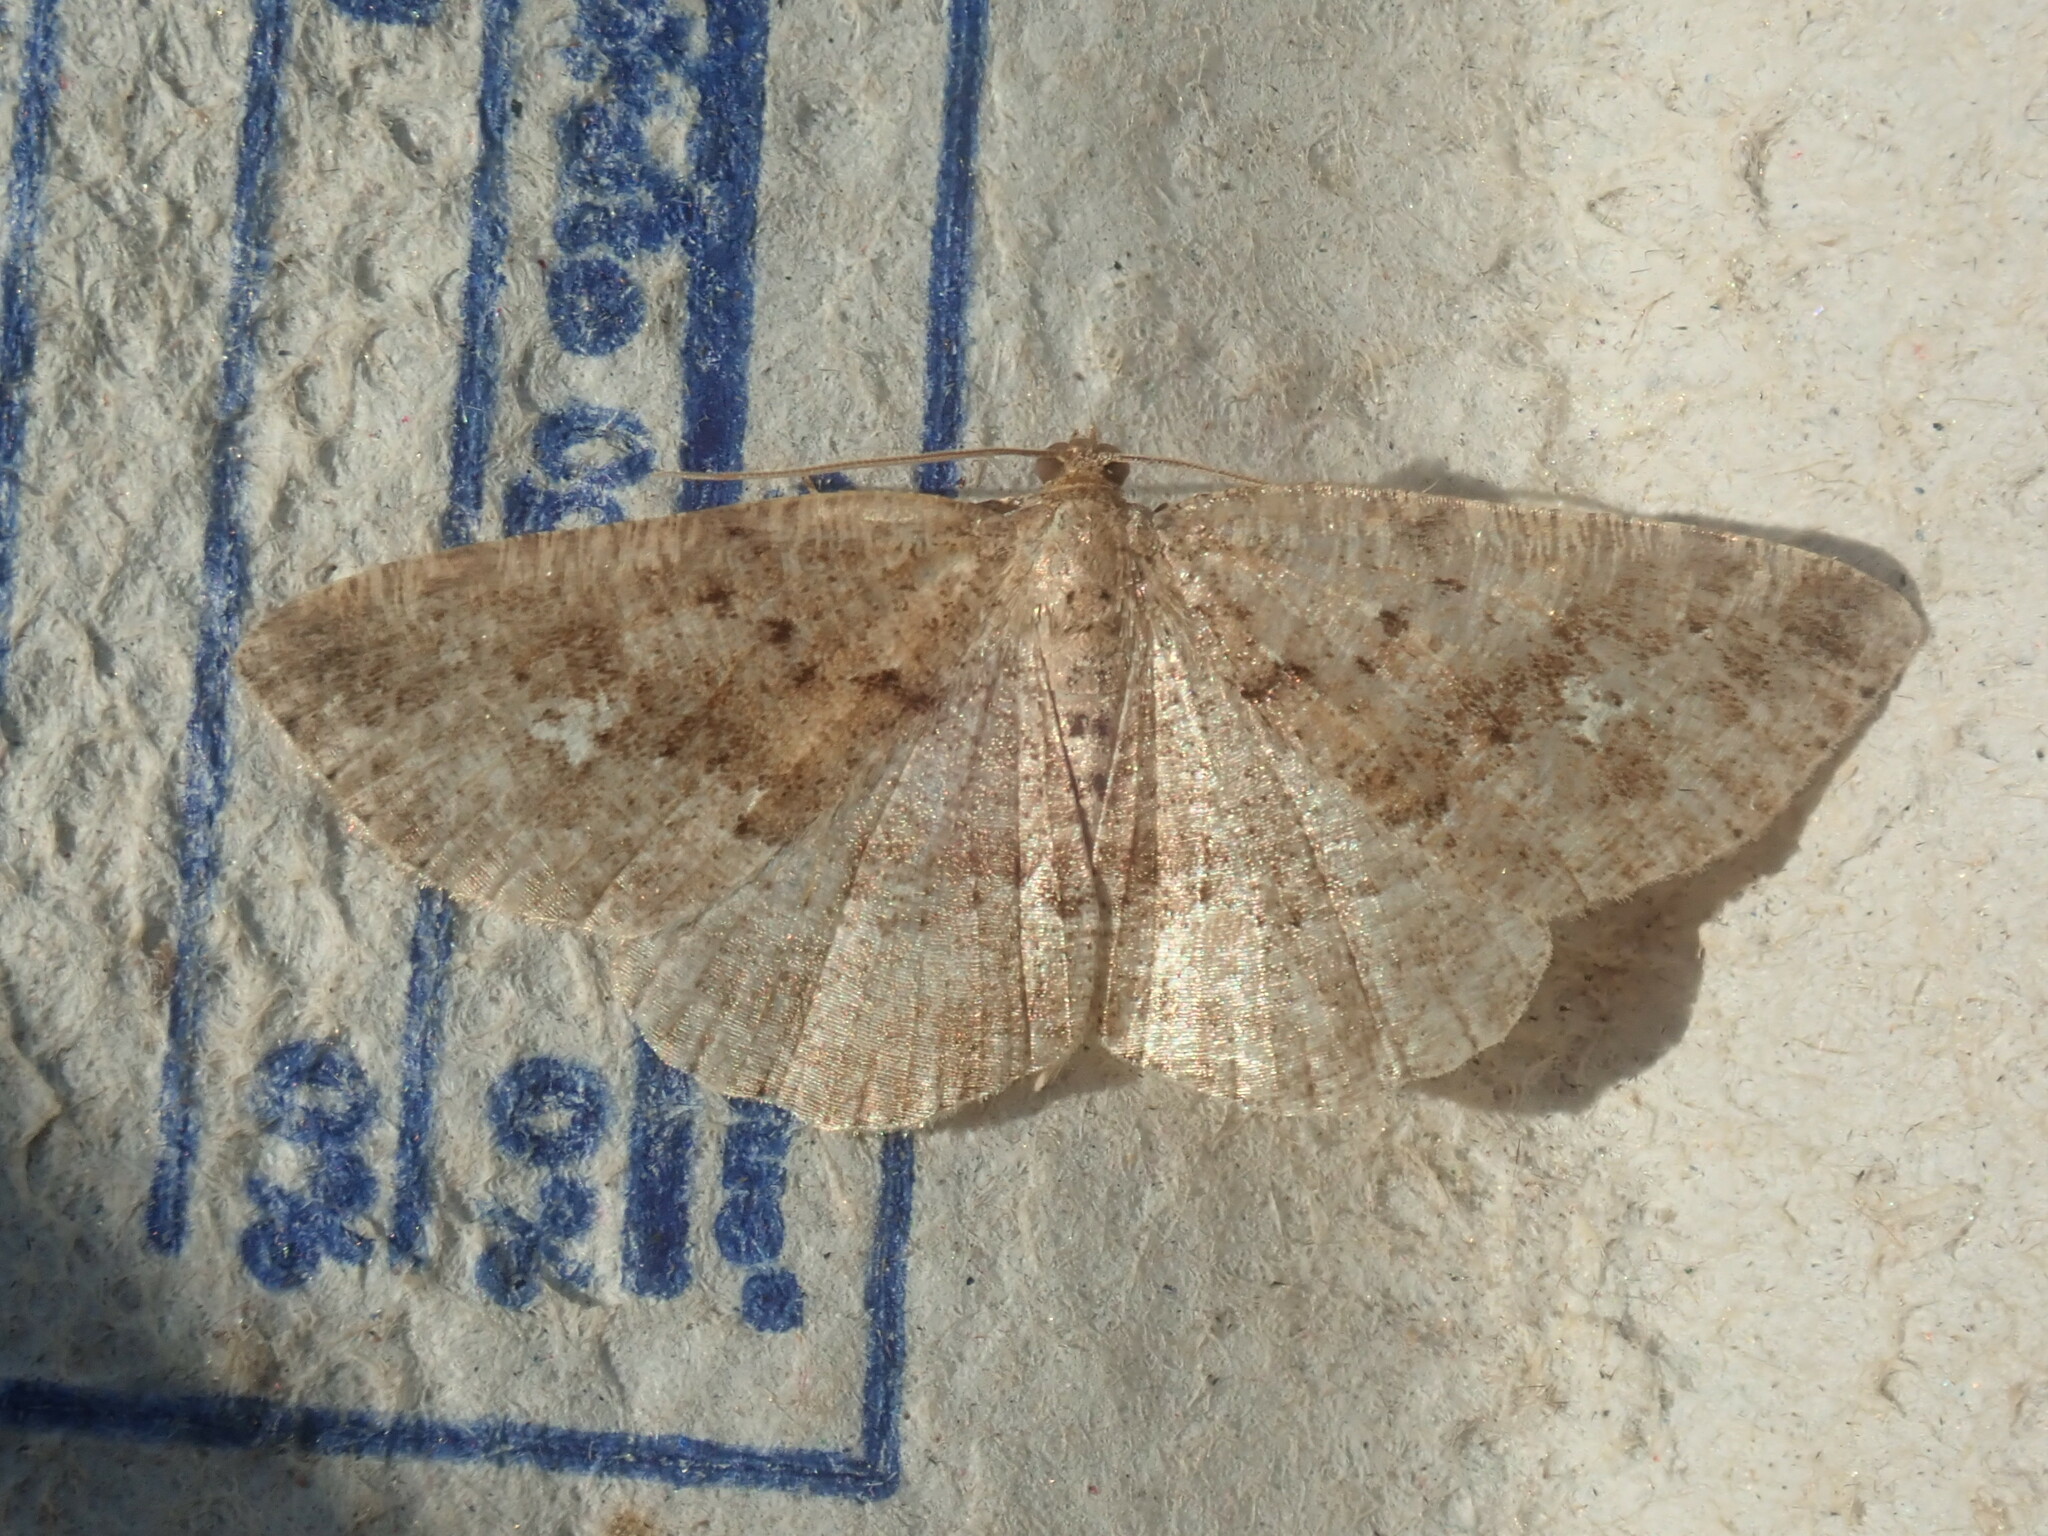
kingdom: Animalia
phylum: Arthropoda
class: Insecta
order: Lepidoptera
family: Geometridae
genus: Homochlodes
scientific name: Homochlodes fritillaria
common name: Pale homochlodes
